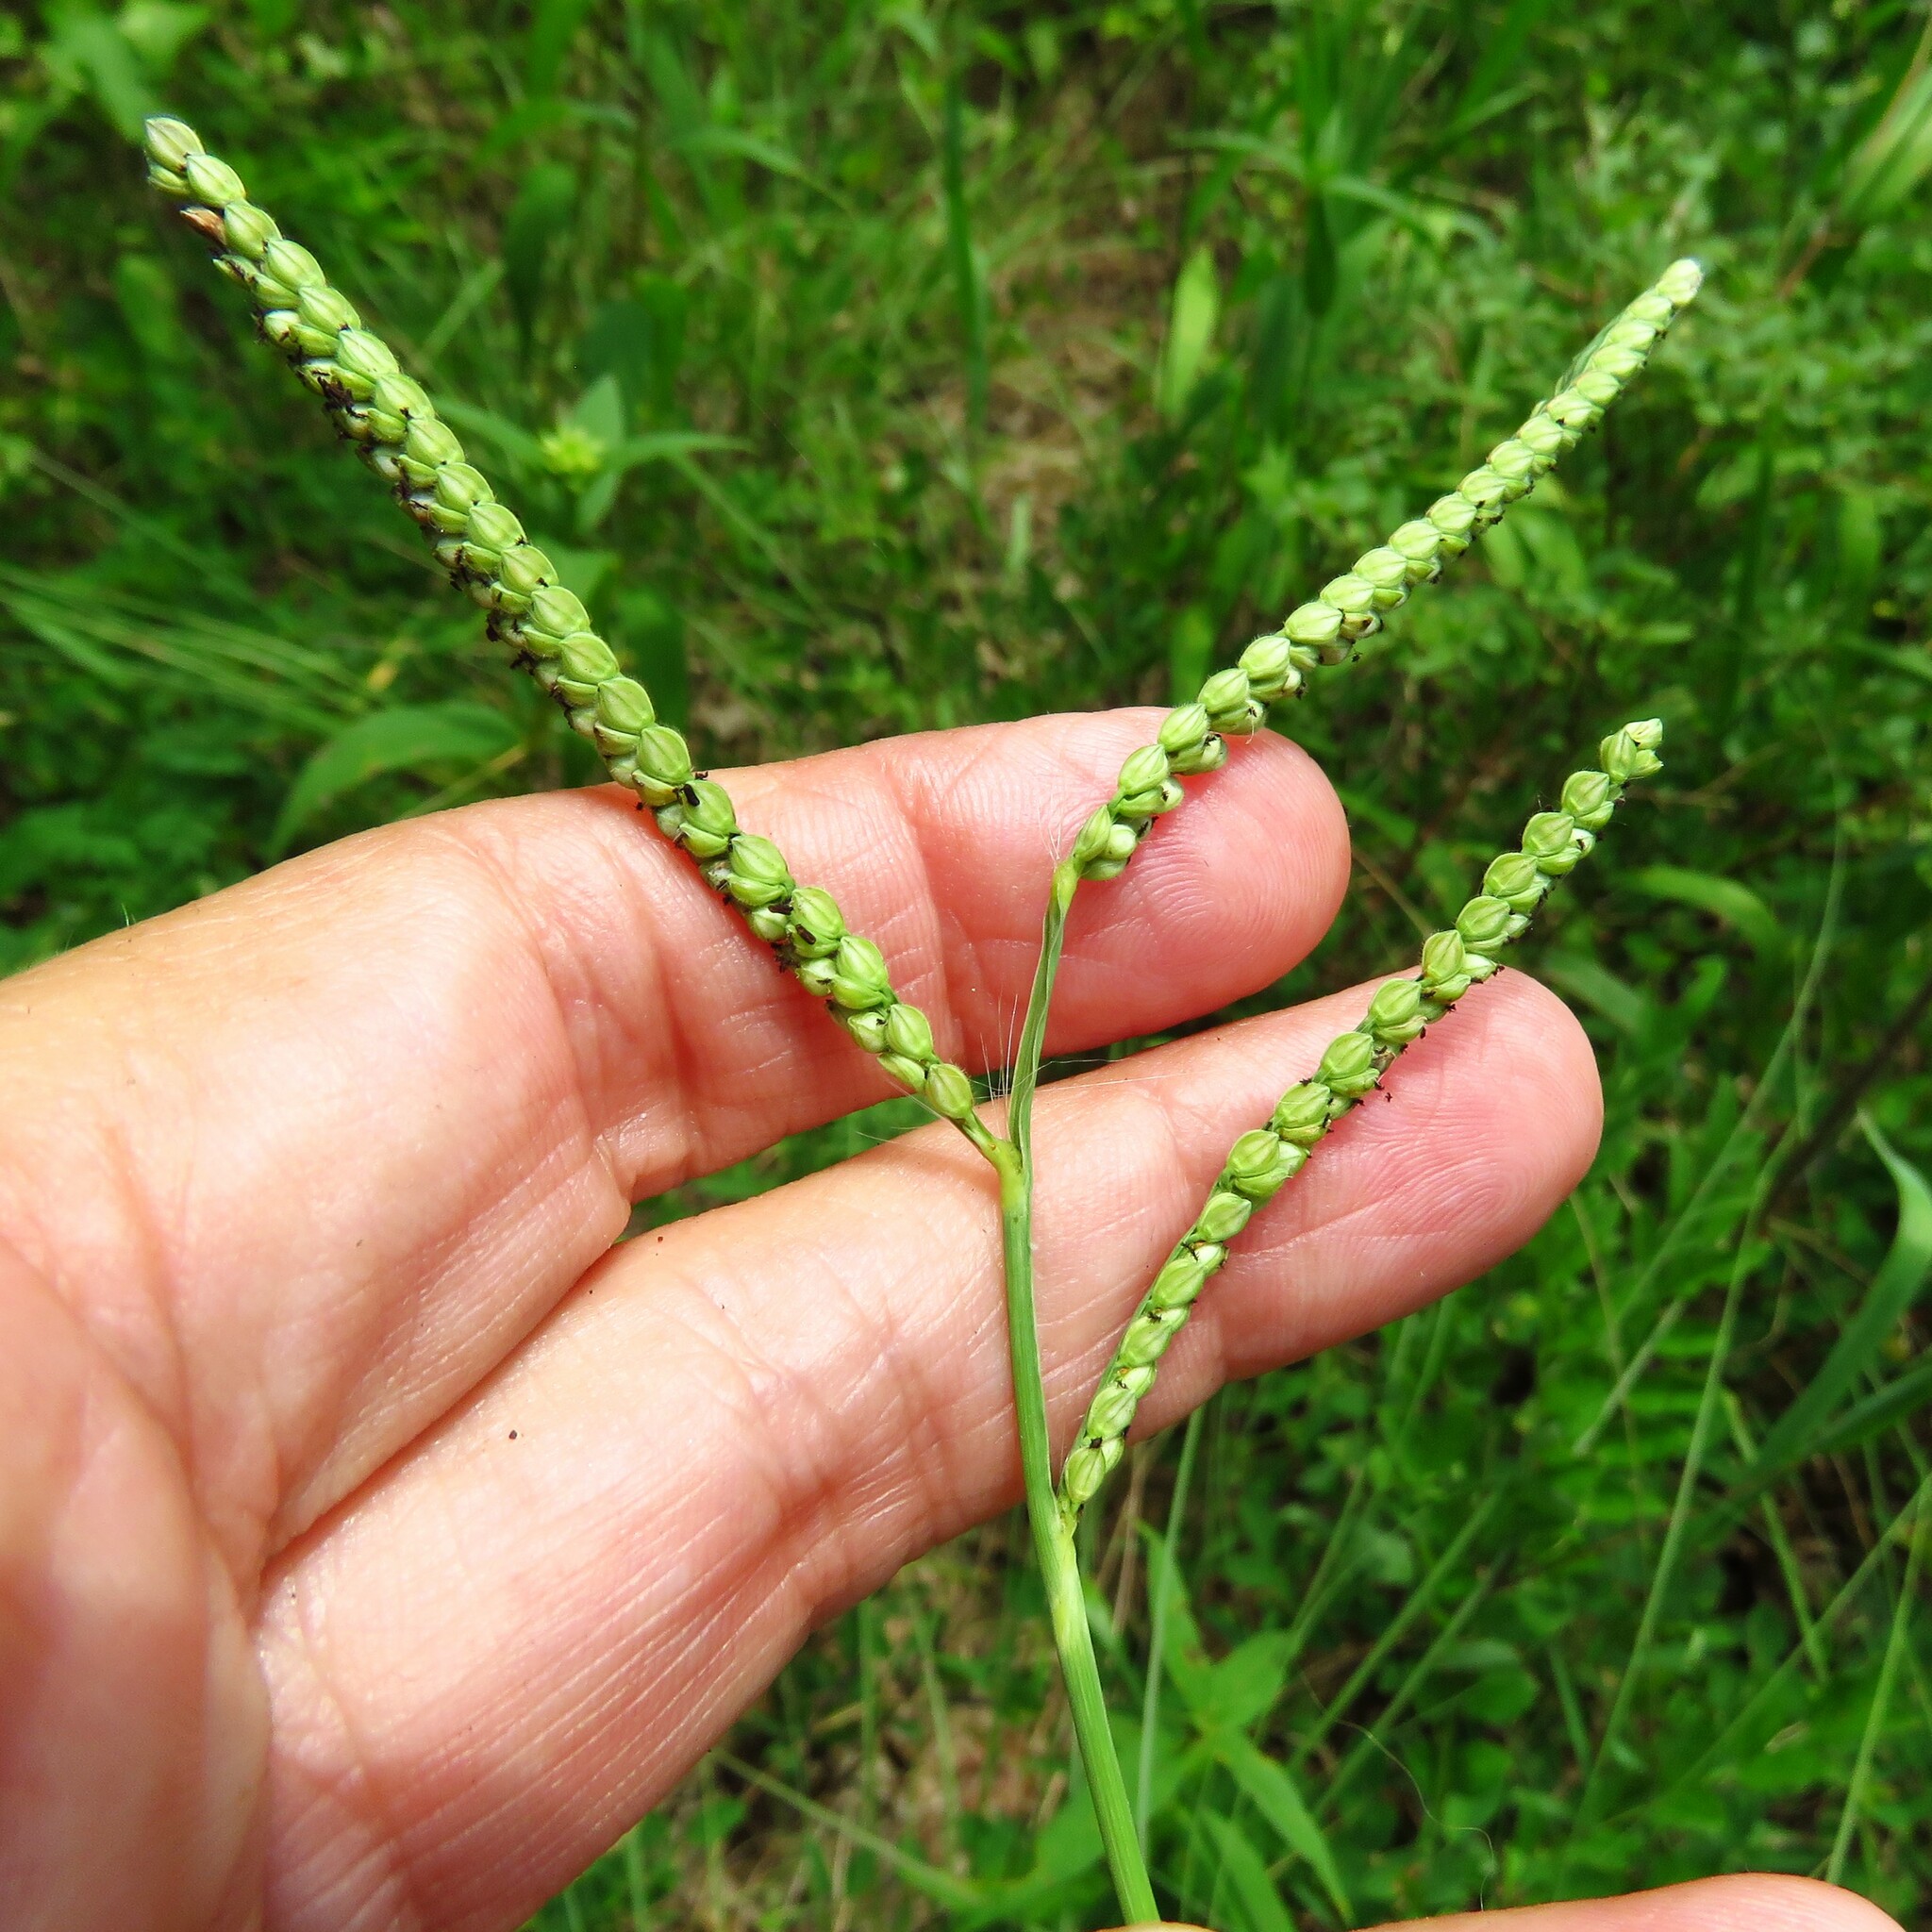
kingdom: Plantae
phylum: Tracheophyta
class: Liliopsida
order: Poales
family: Poaceae
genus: Paspalum
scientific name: Paspalum pubiflorum
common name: Hairy-seed paspalum
